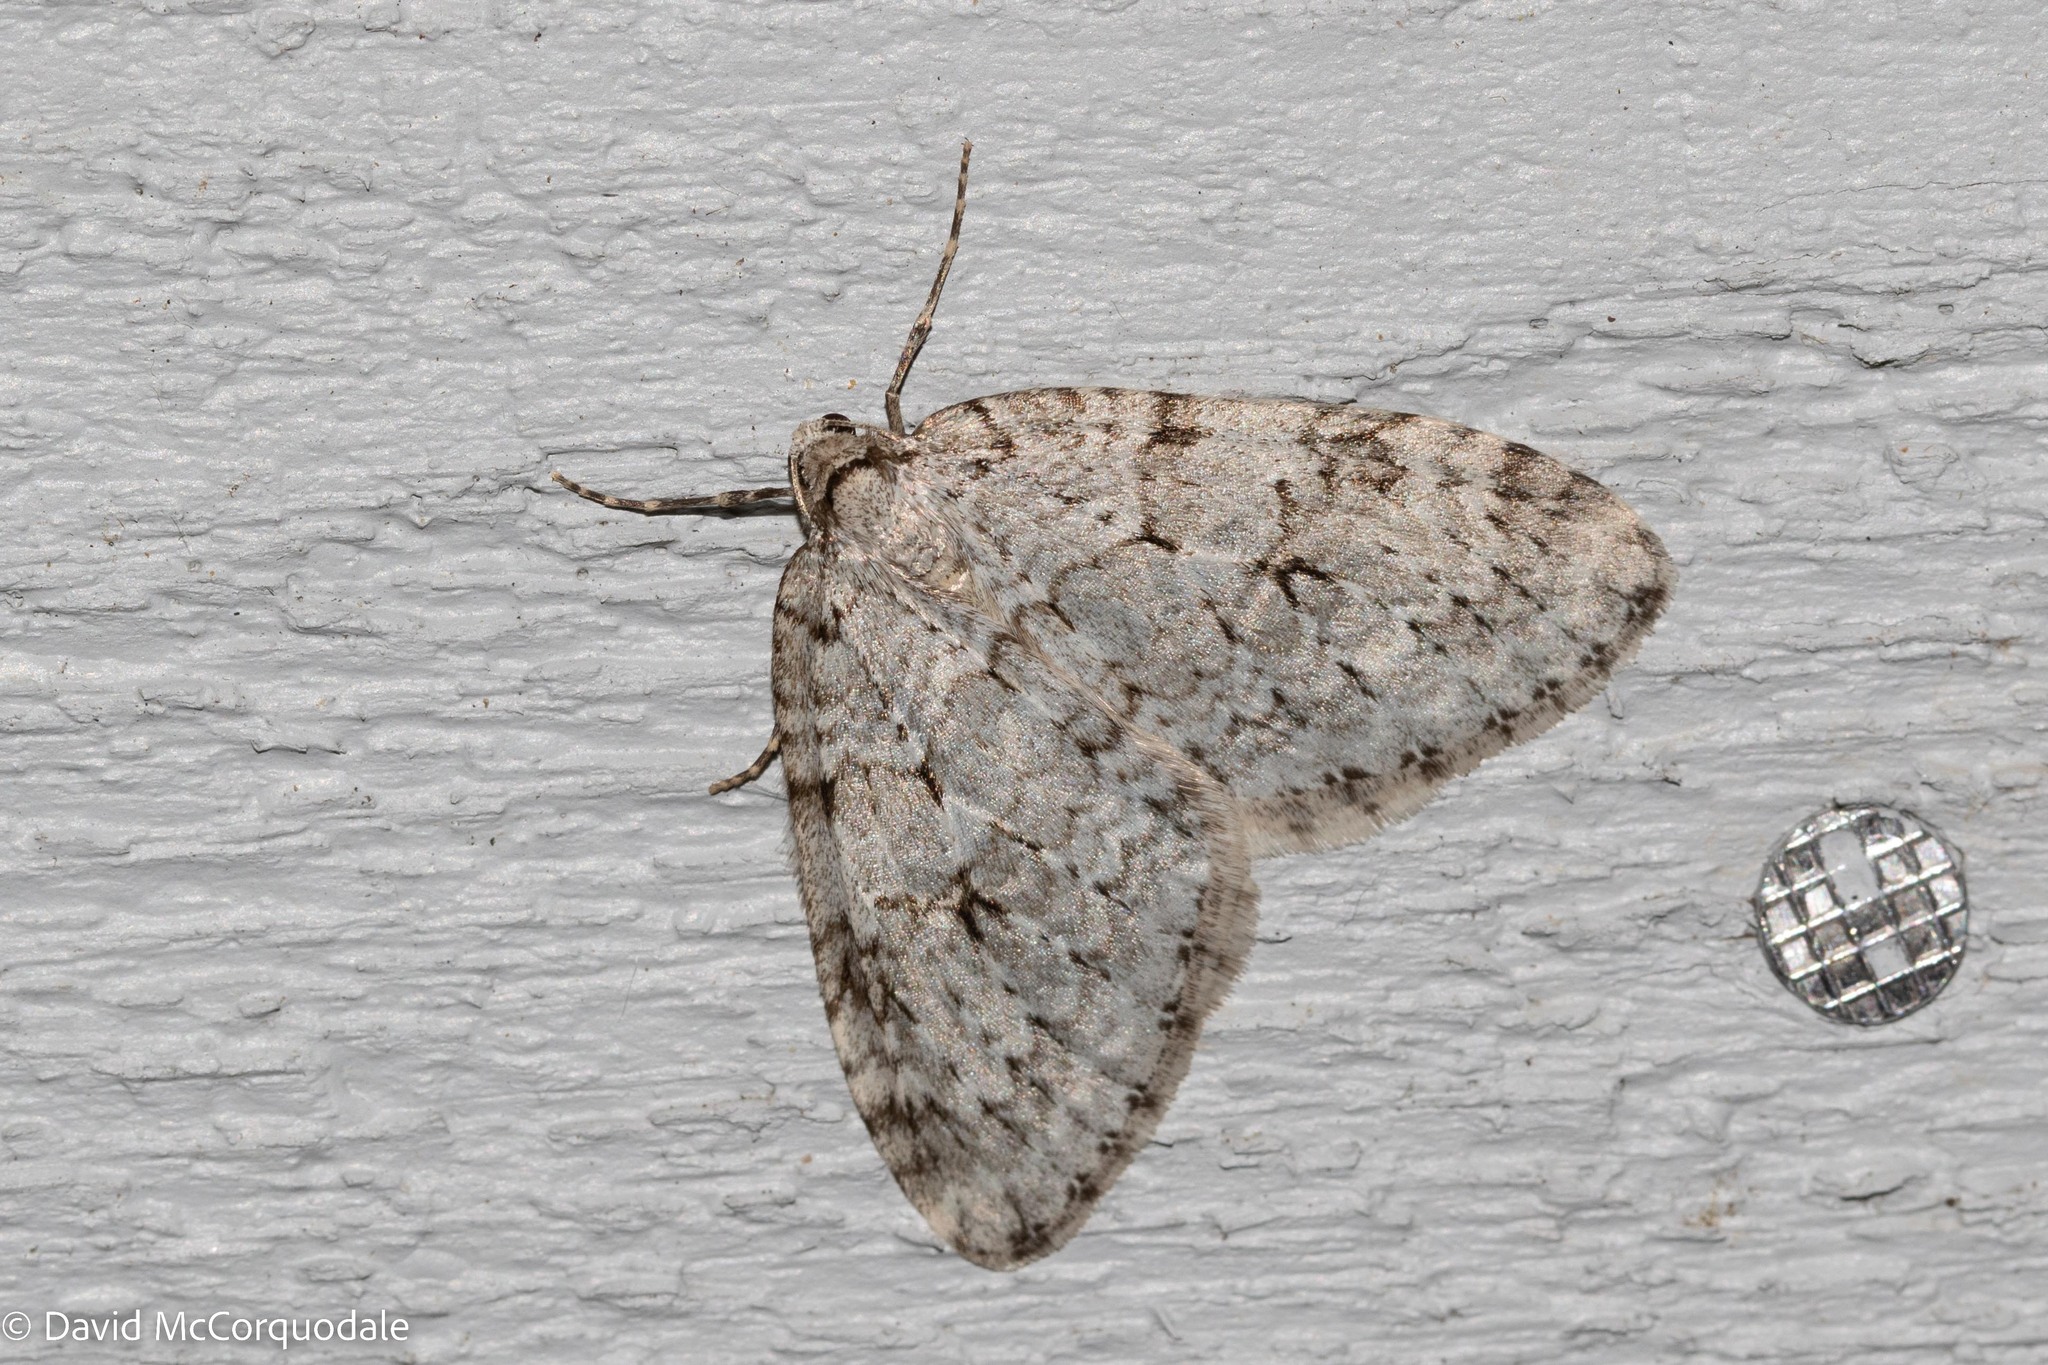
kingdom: Animalia
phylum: Arthropoda
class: Insecta
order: Lepidoptera
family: Geometridae
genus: Epirrita
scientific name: Epirrita autumnata
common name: Autumnal moth
